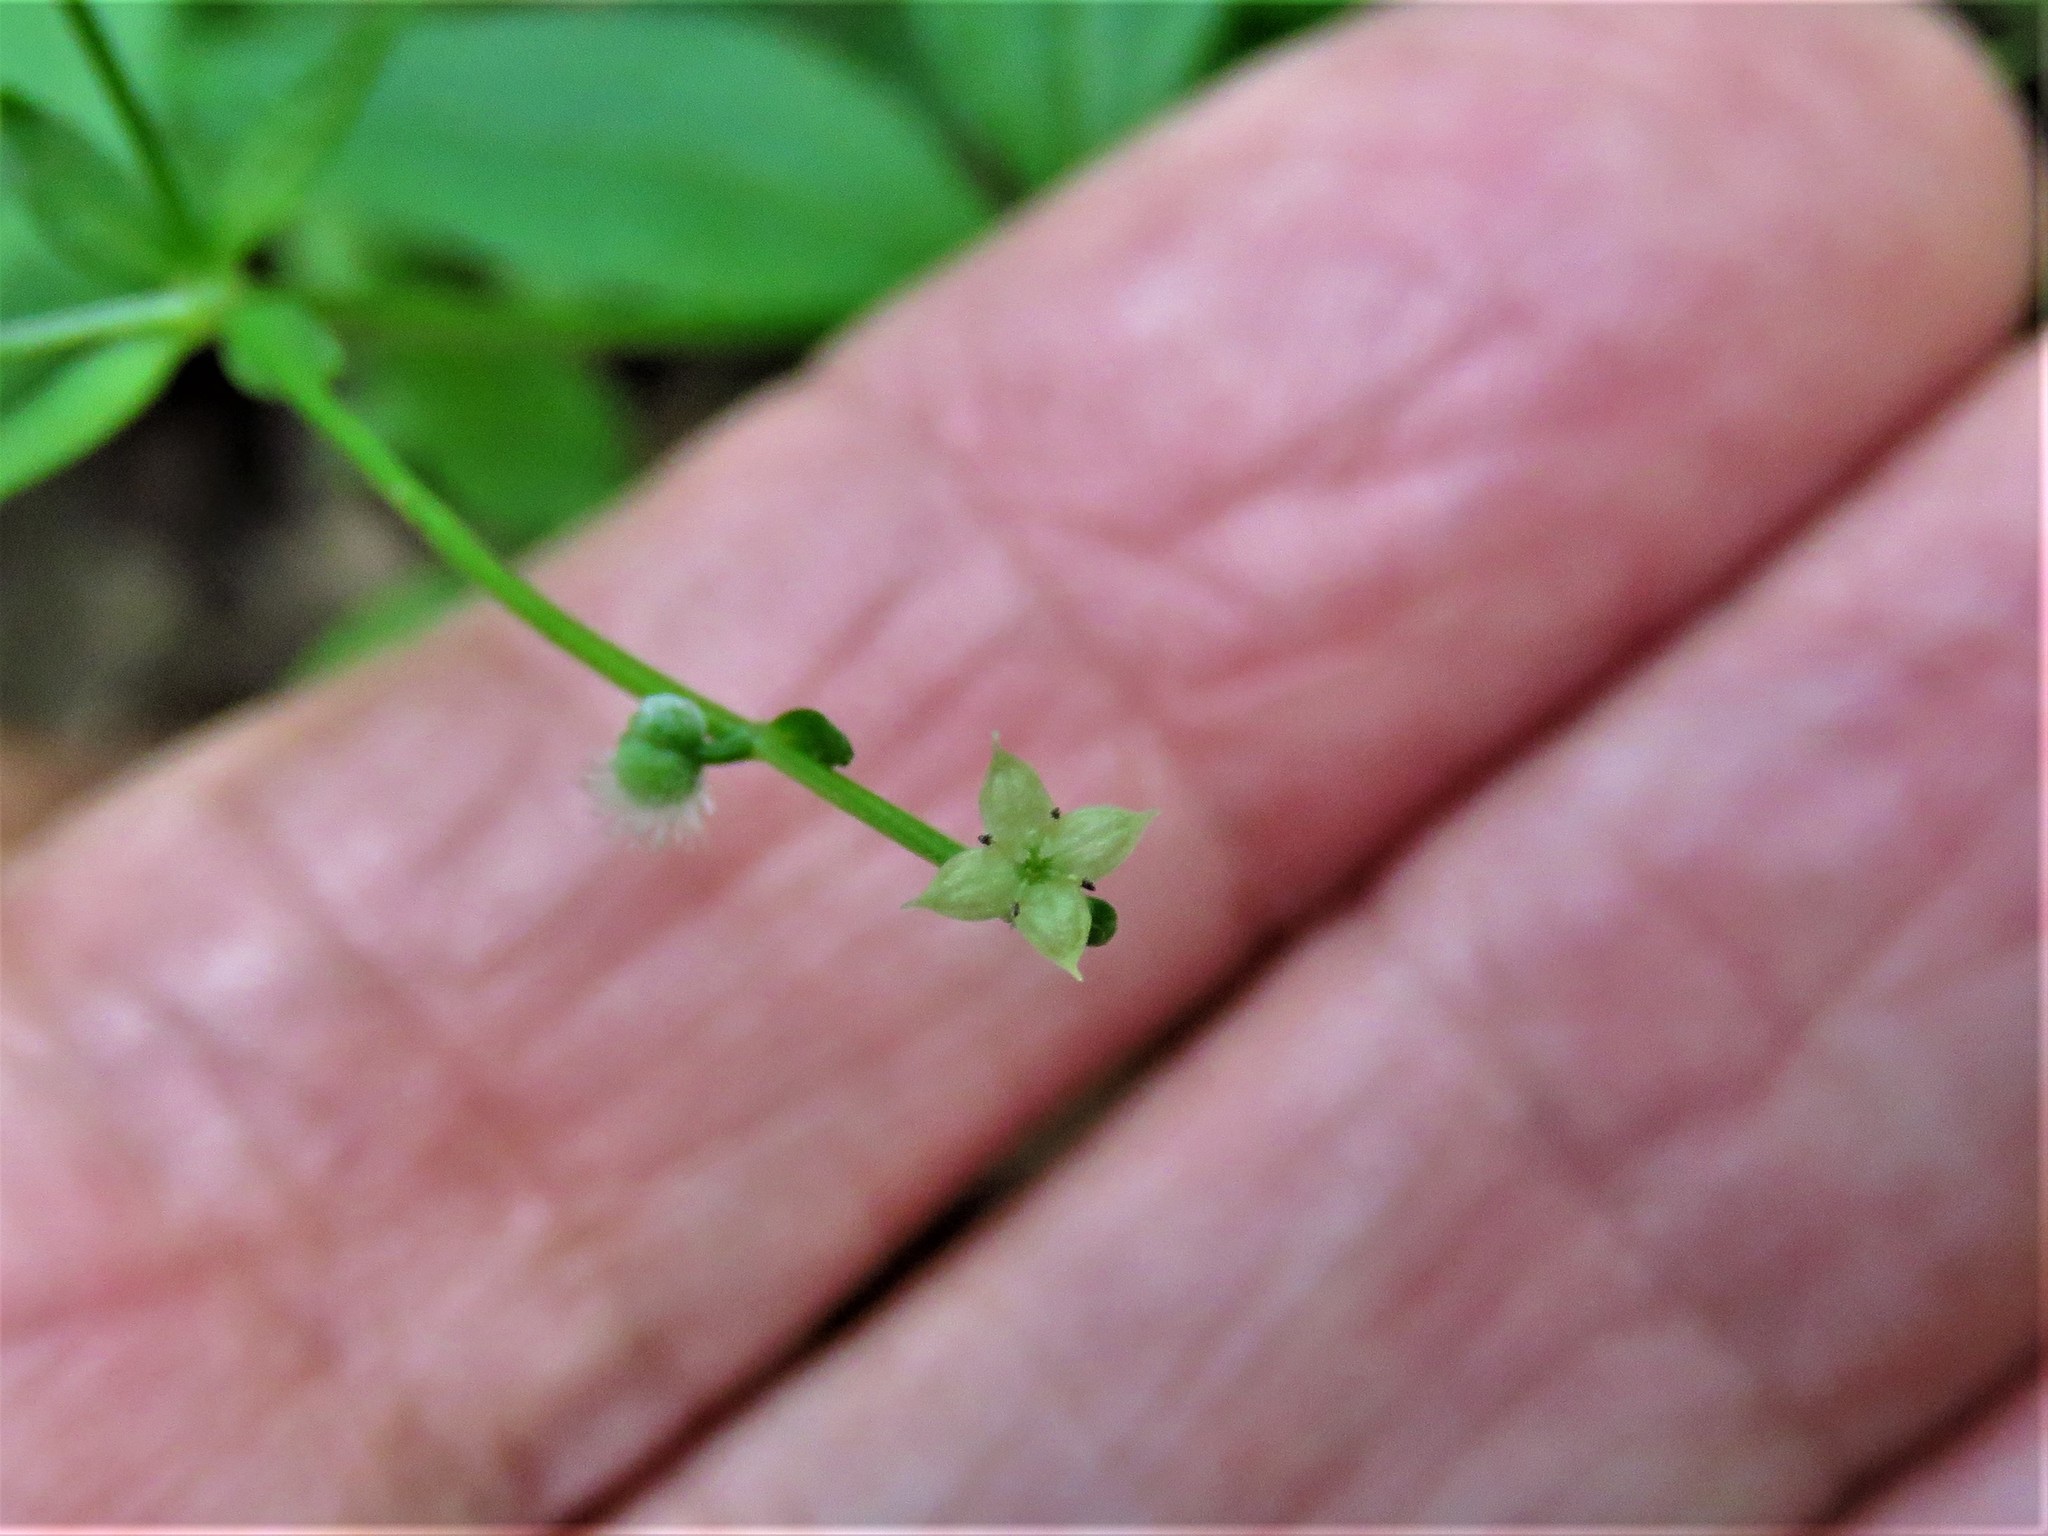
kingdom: Plantae
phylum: Tracheophyta
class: Magnoliopsida
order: Gentianales
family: Rubiaceae
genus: Galium
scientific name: Galium circaezans
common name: Forest bedstraw
